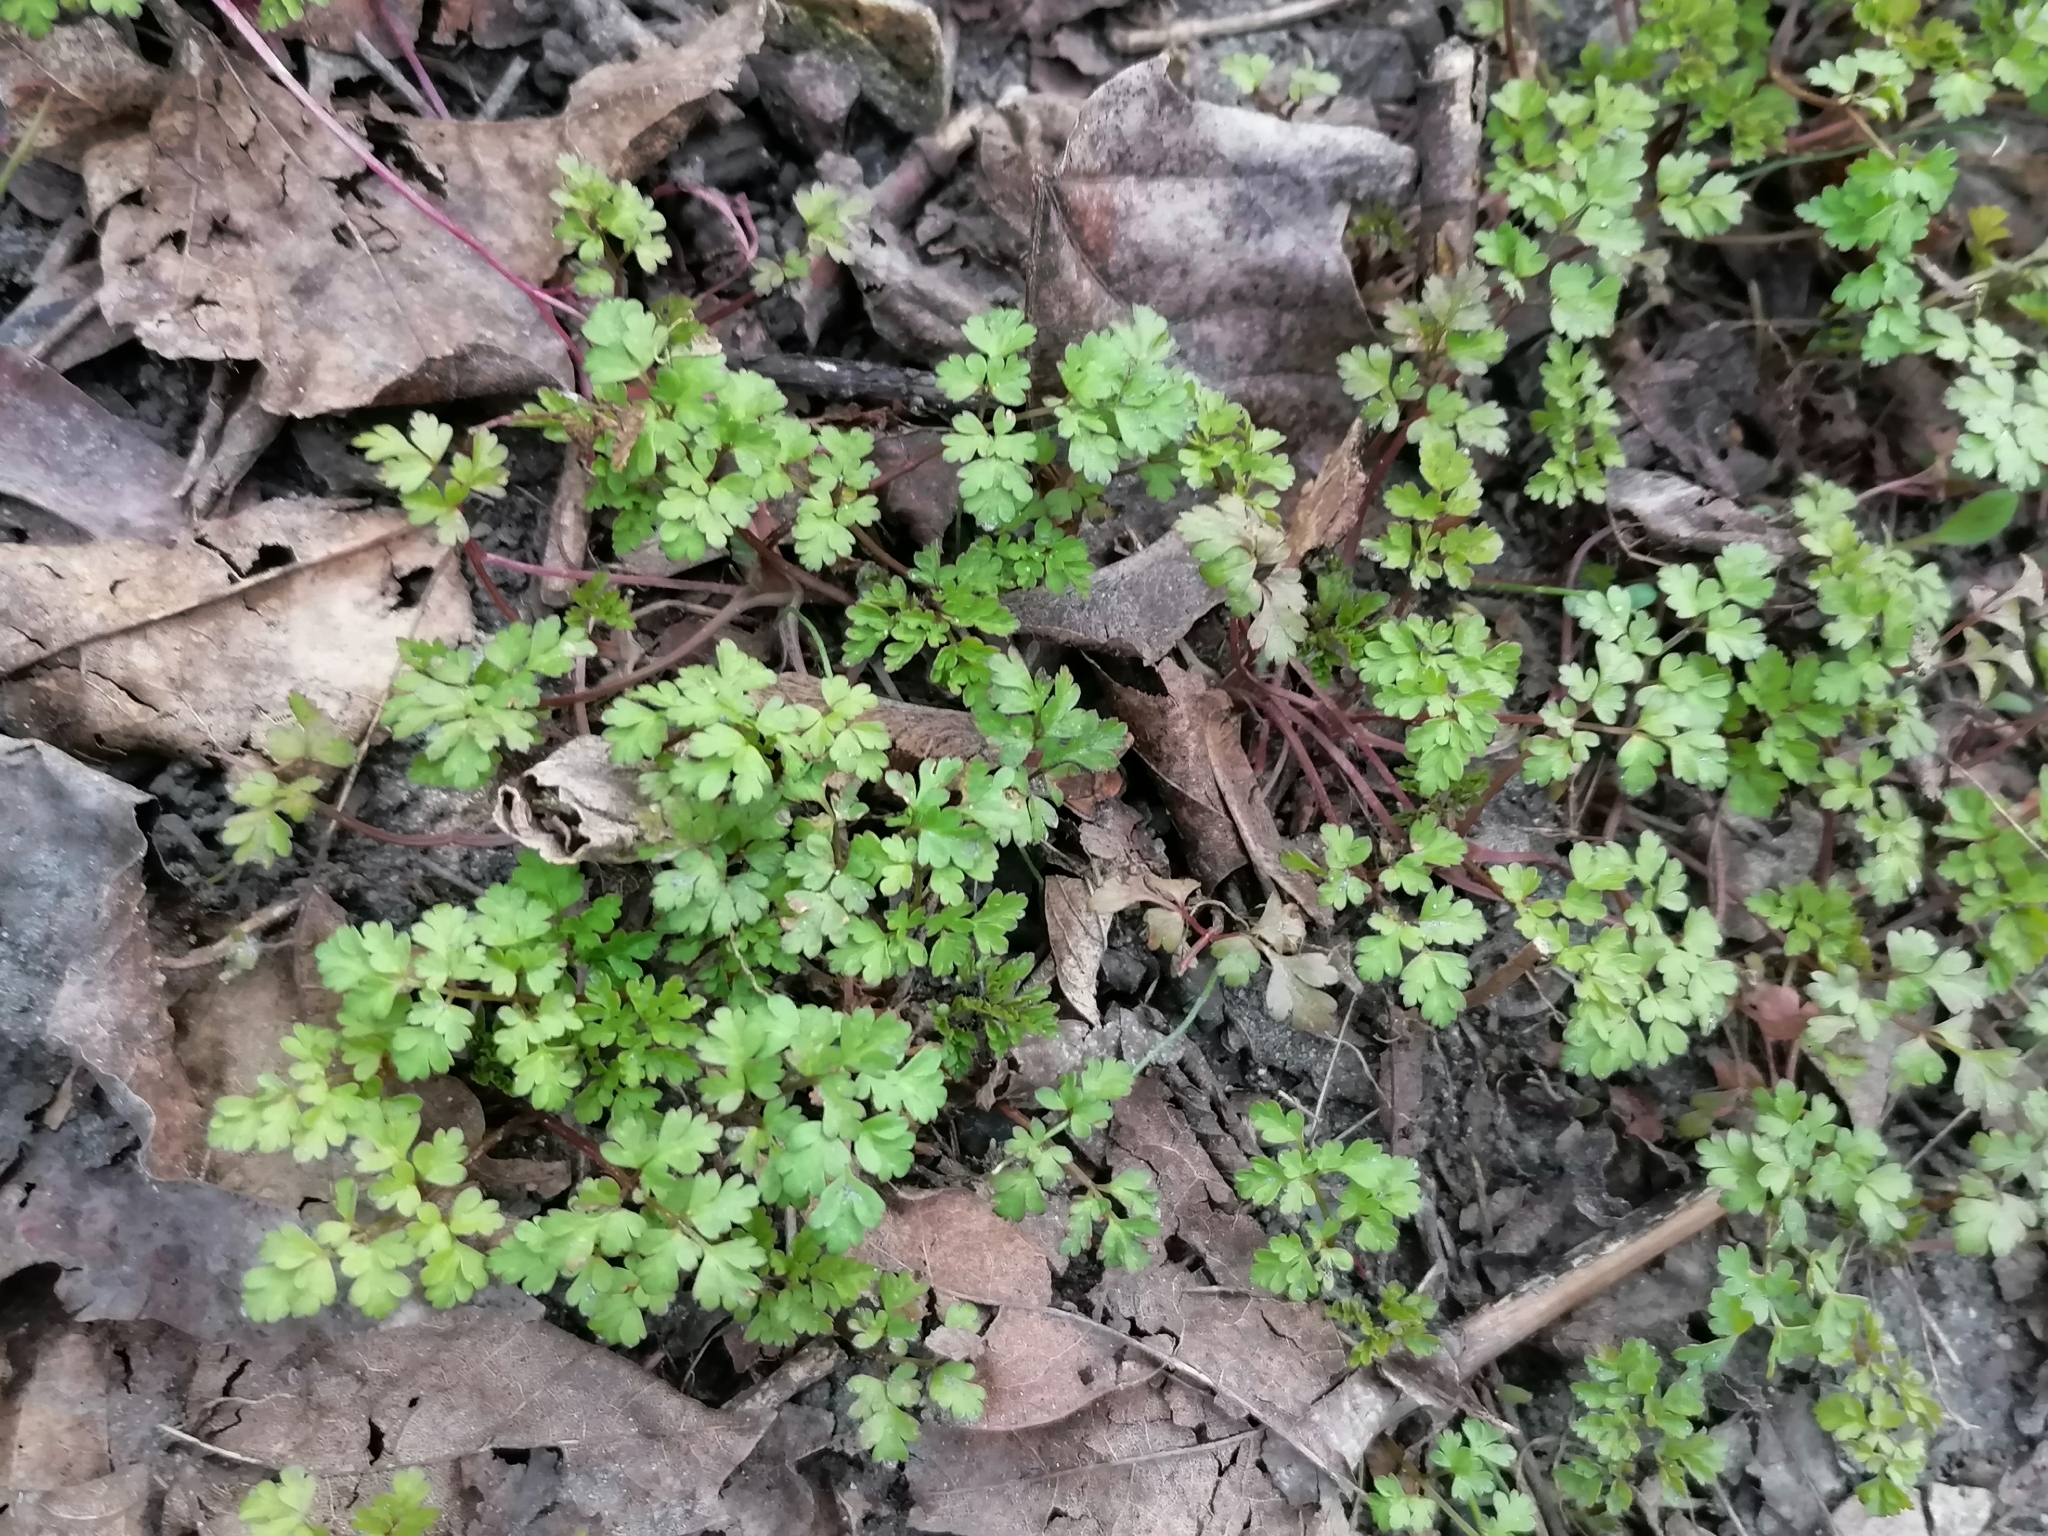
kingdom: Plantae
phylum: Tracheophyta
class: Magnoliopsida
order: Apiales
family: Apiaceae
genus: Chaerophyllum
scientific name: Chaerophyllum temulum
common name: Rough chervil
